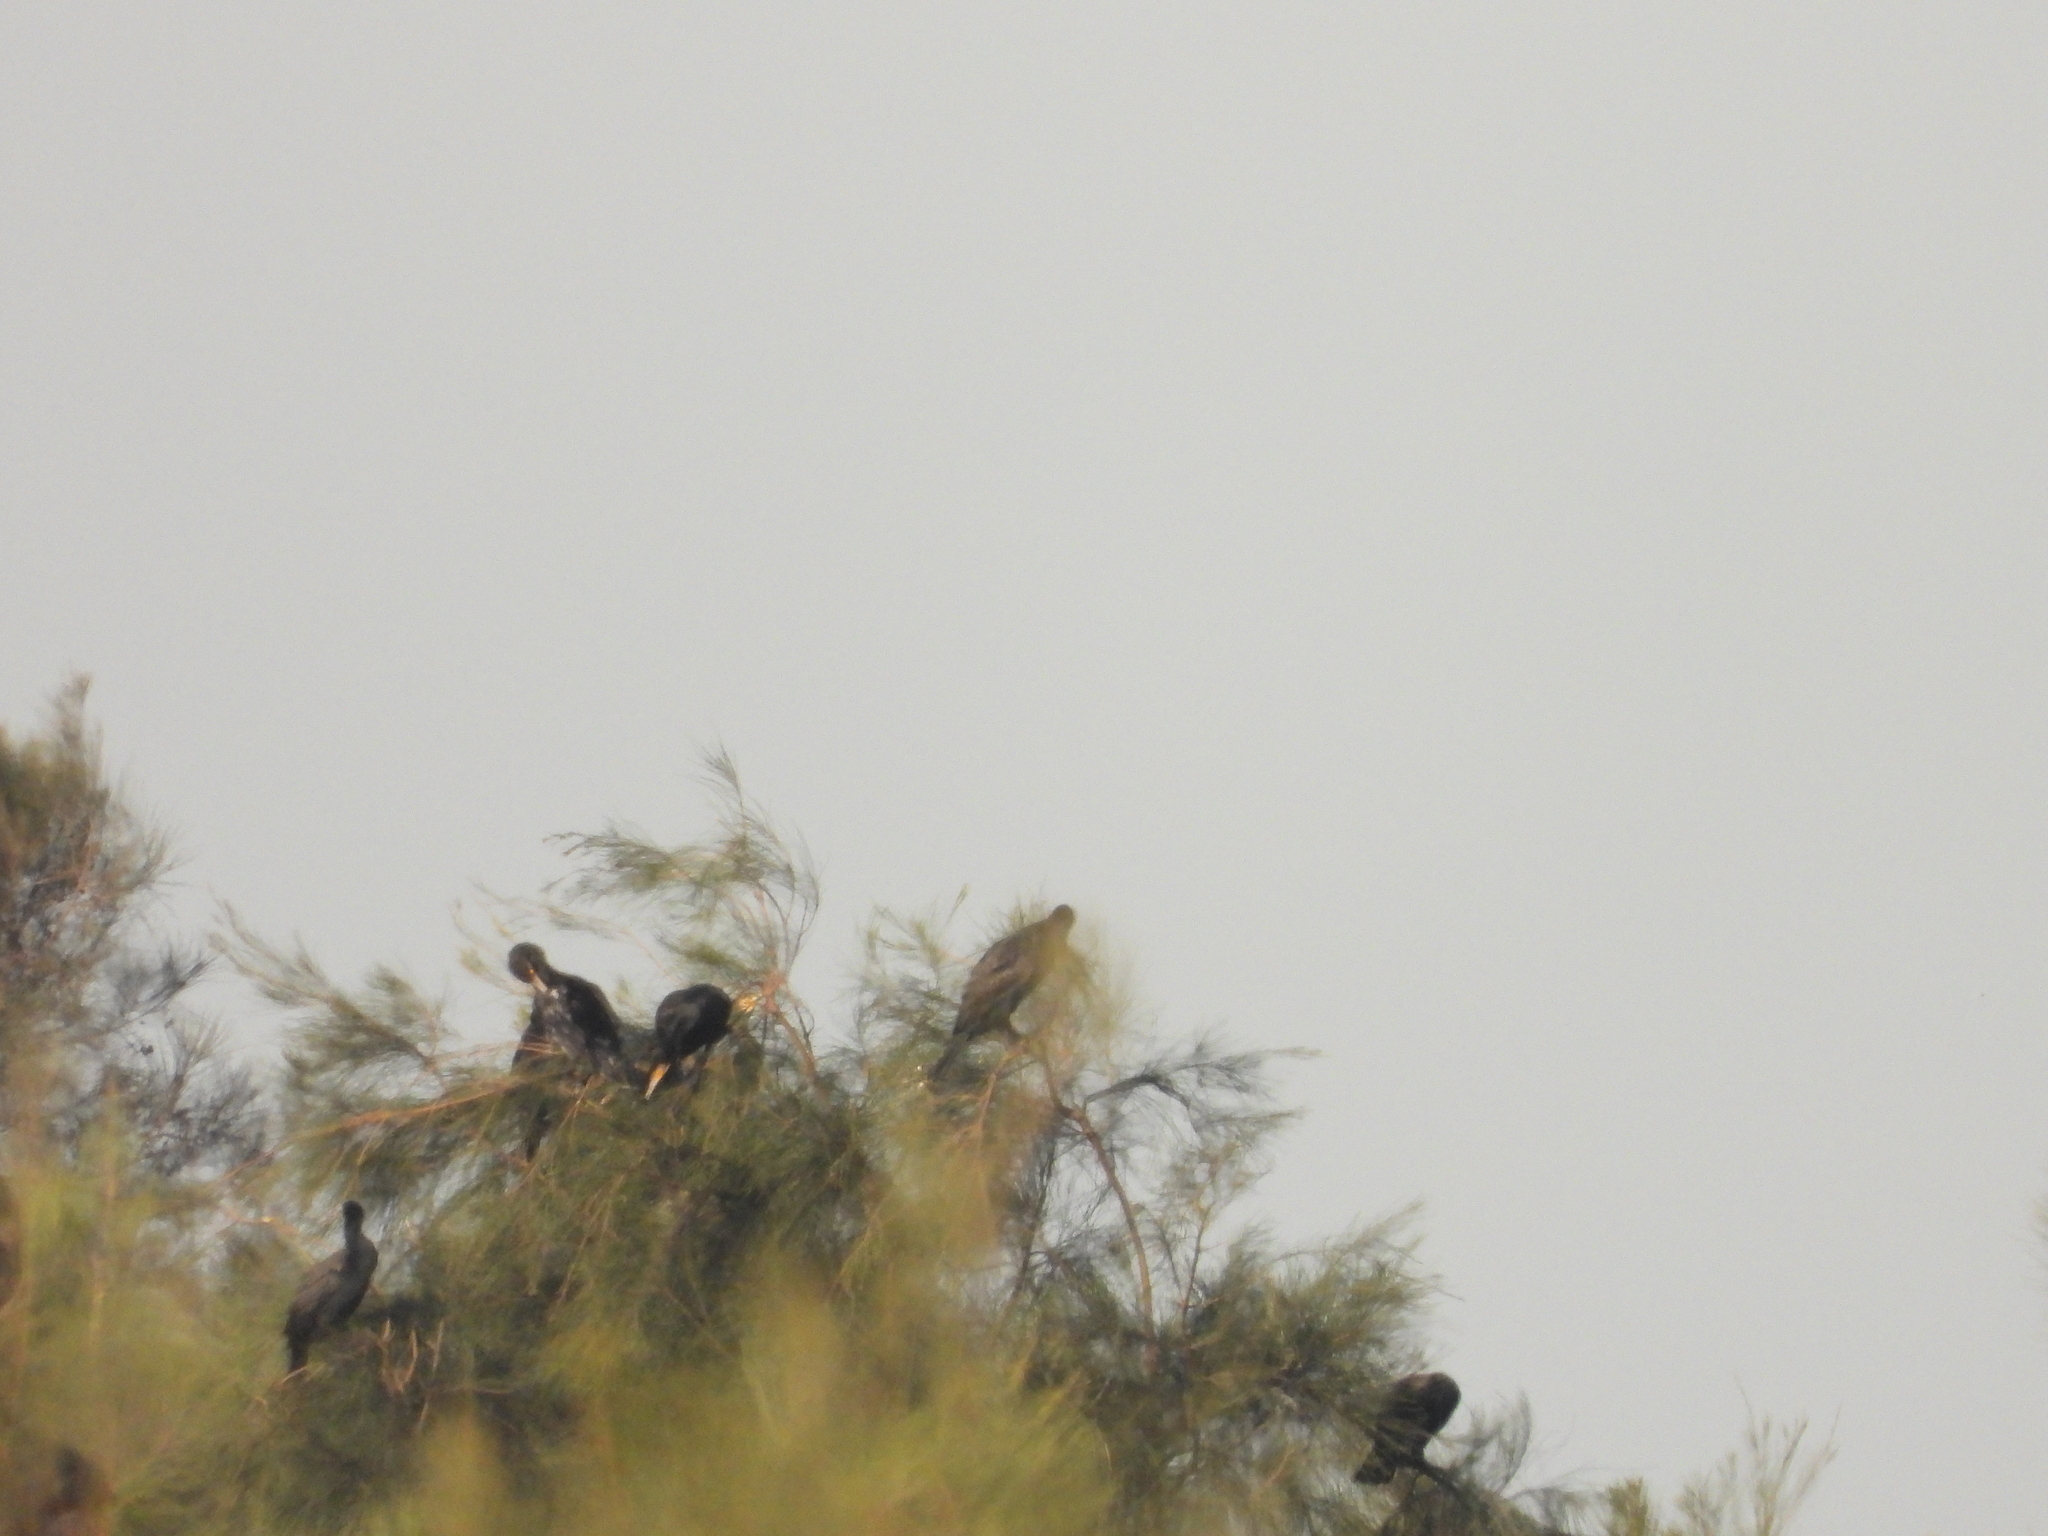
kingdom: Animalia
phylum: Chordata
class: Aves
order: Suliformes
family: Phalacrocoracidae
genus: Phalacrocorax
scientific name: Phalacrocorax carbo
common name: Great cormorant
